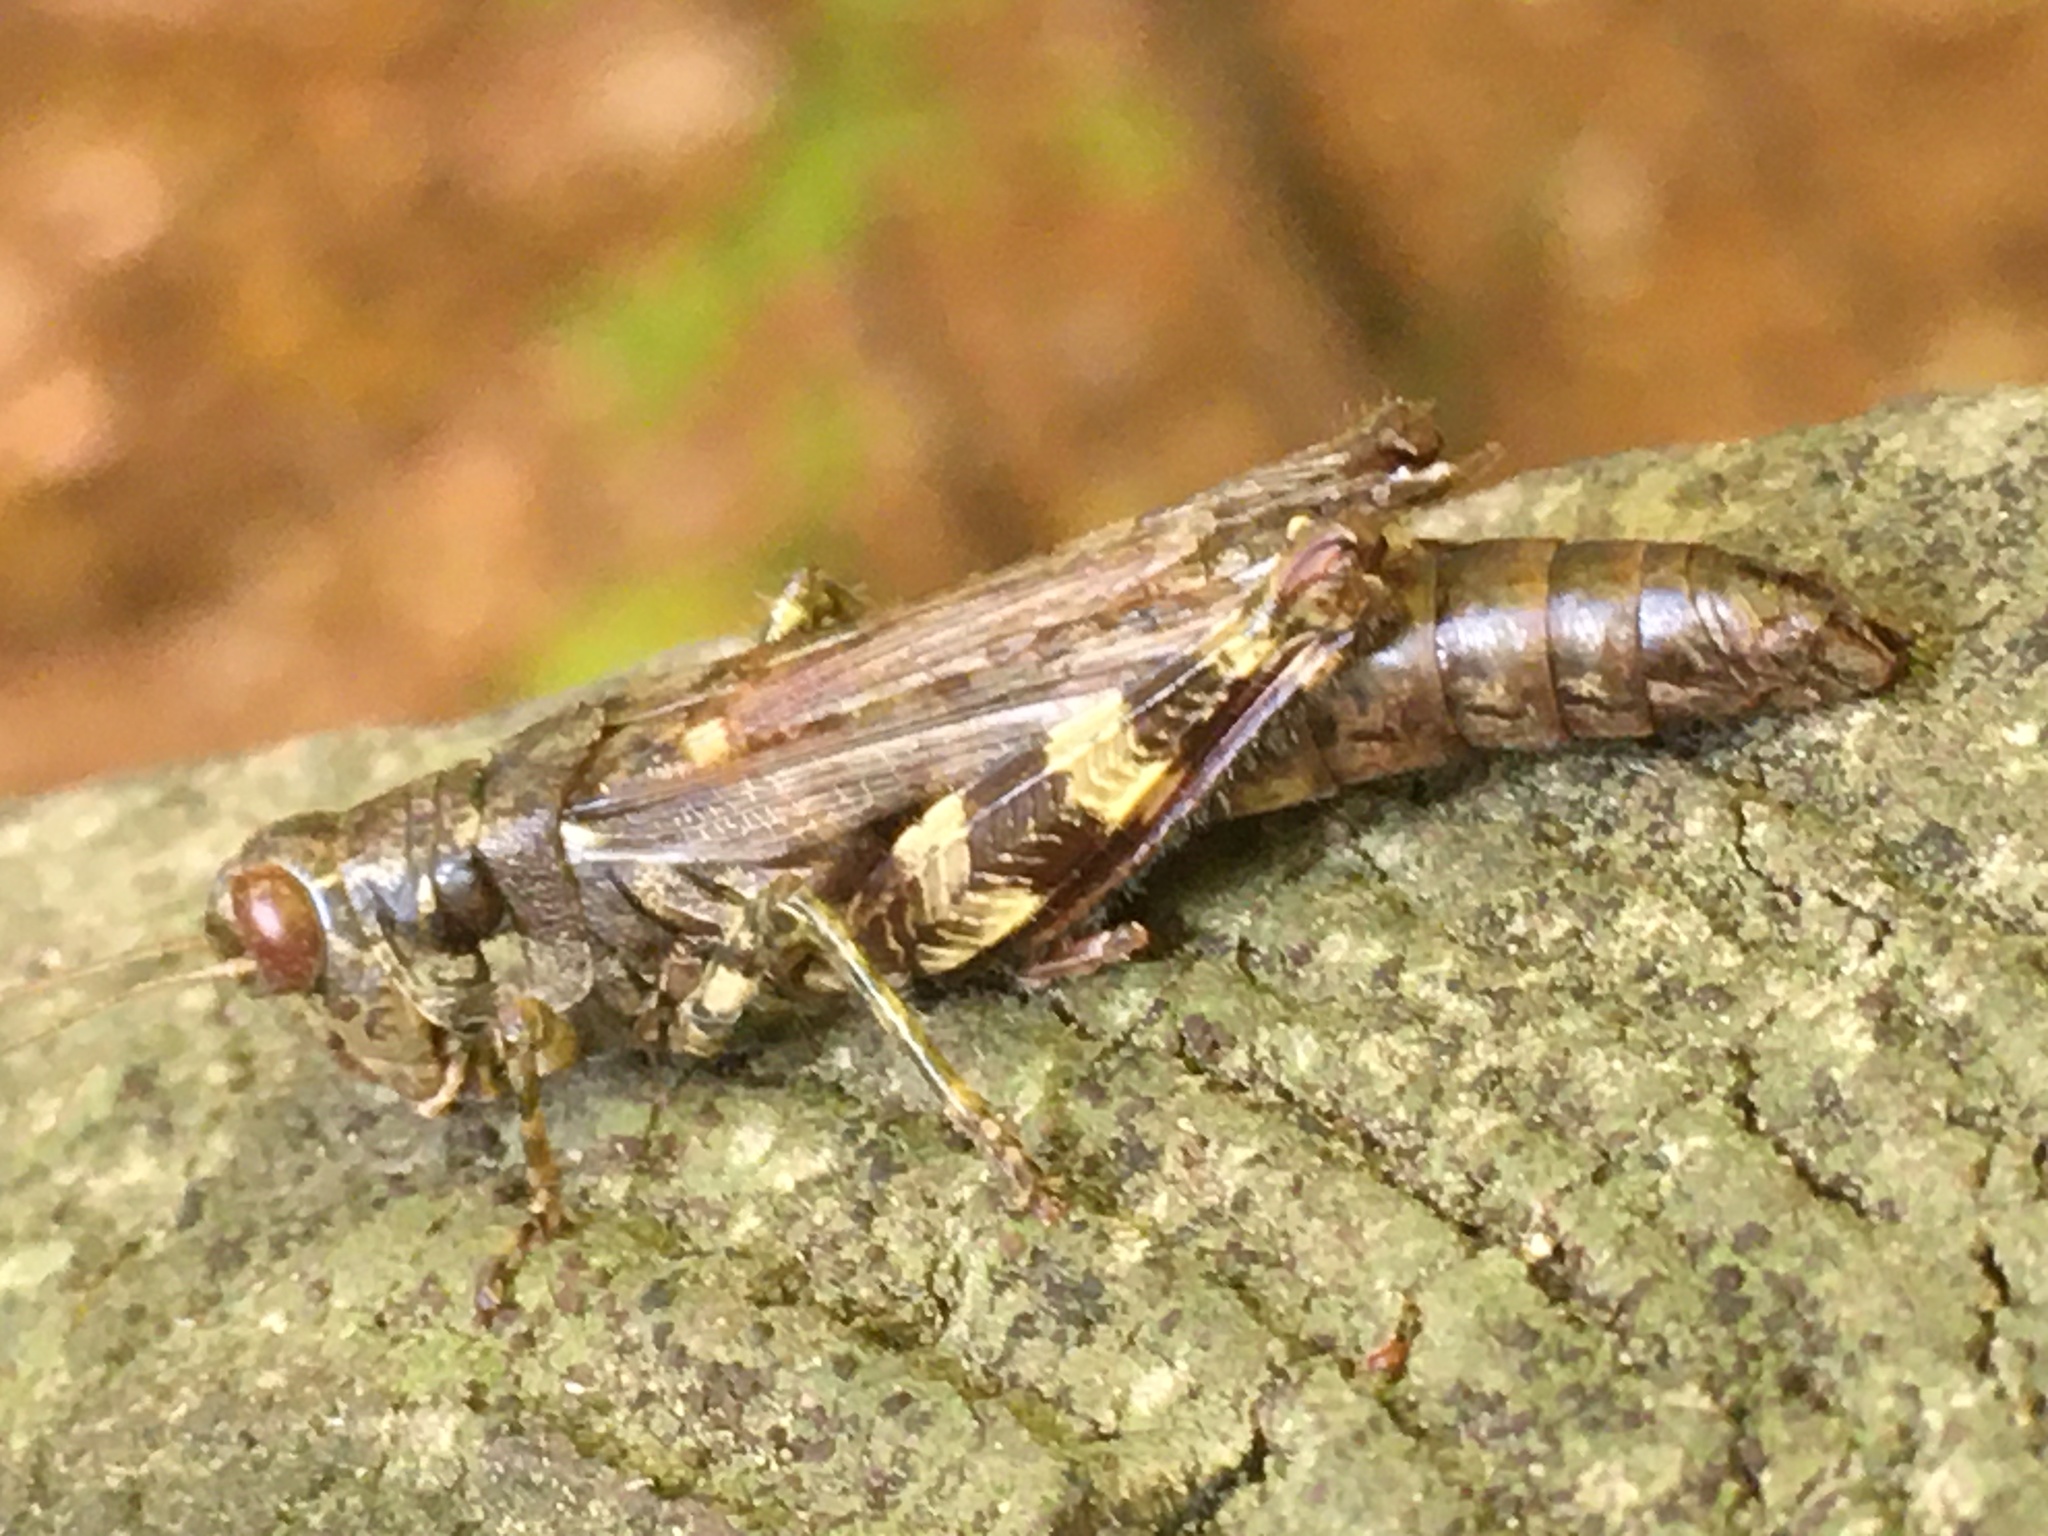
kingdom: Animalia
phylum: Arthropoda
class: Insecta
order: Orthoptera
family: Acrididae
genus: Melanoplus
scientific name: Melanoplus punctulatus
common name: Pine-tree spur-throat grasshopper
